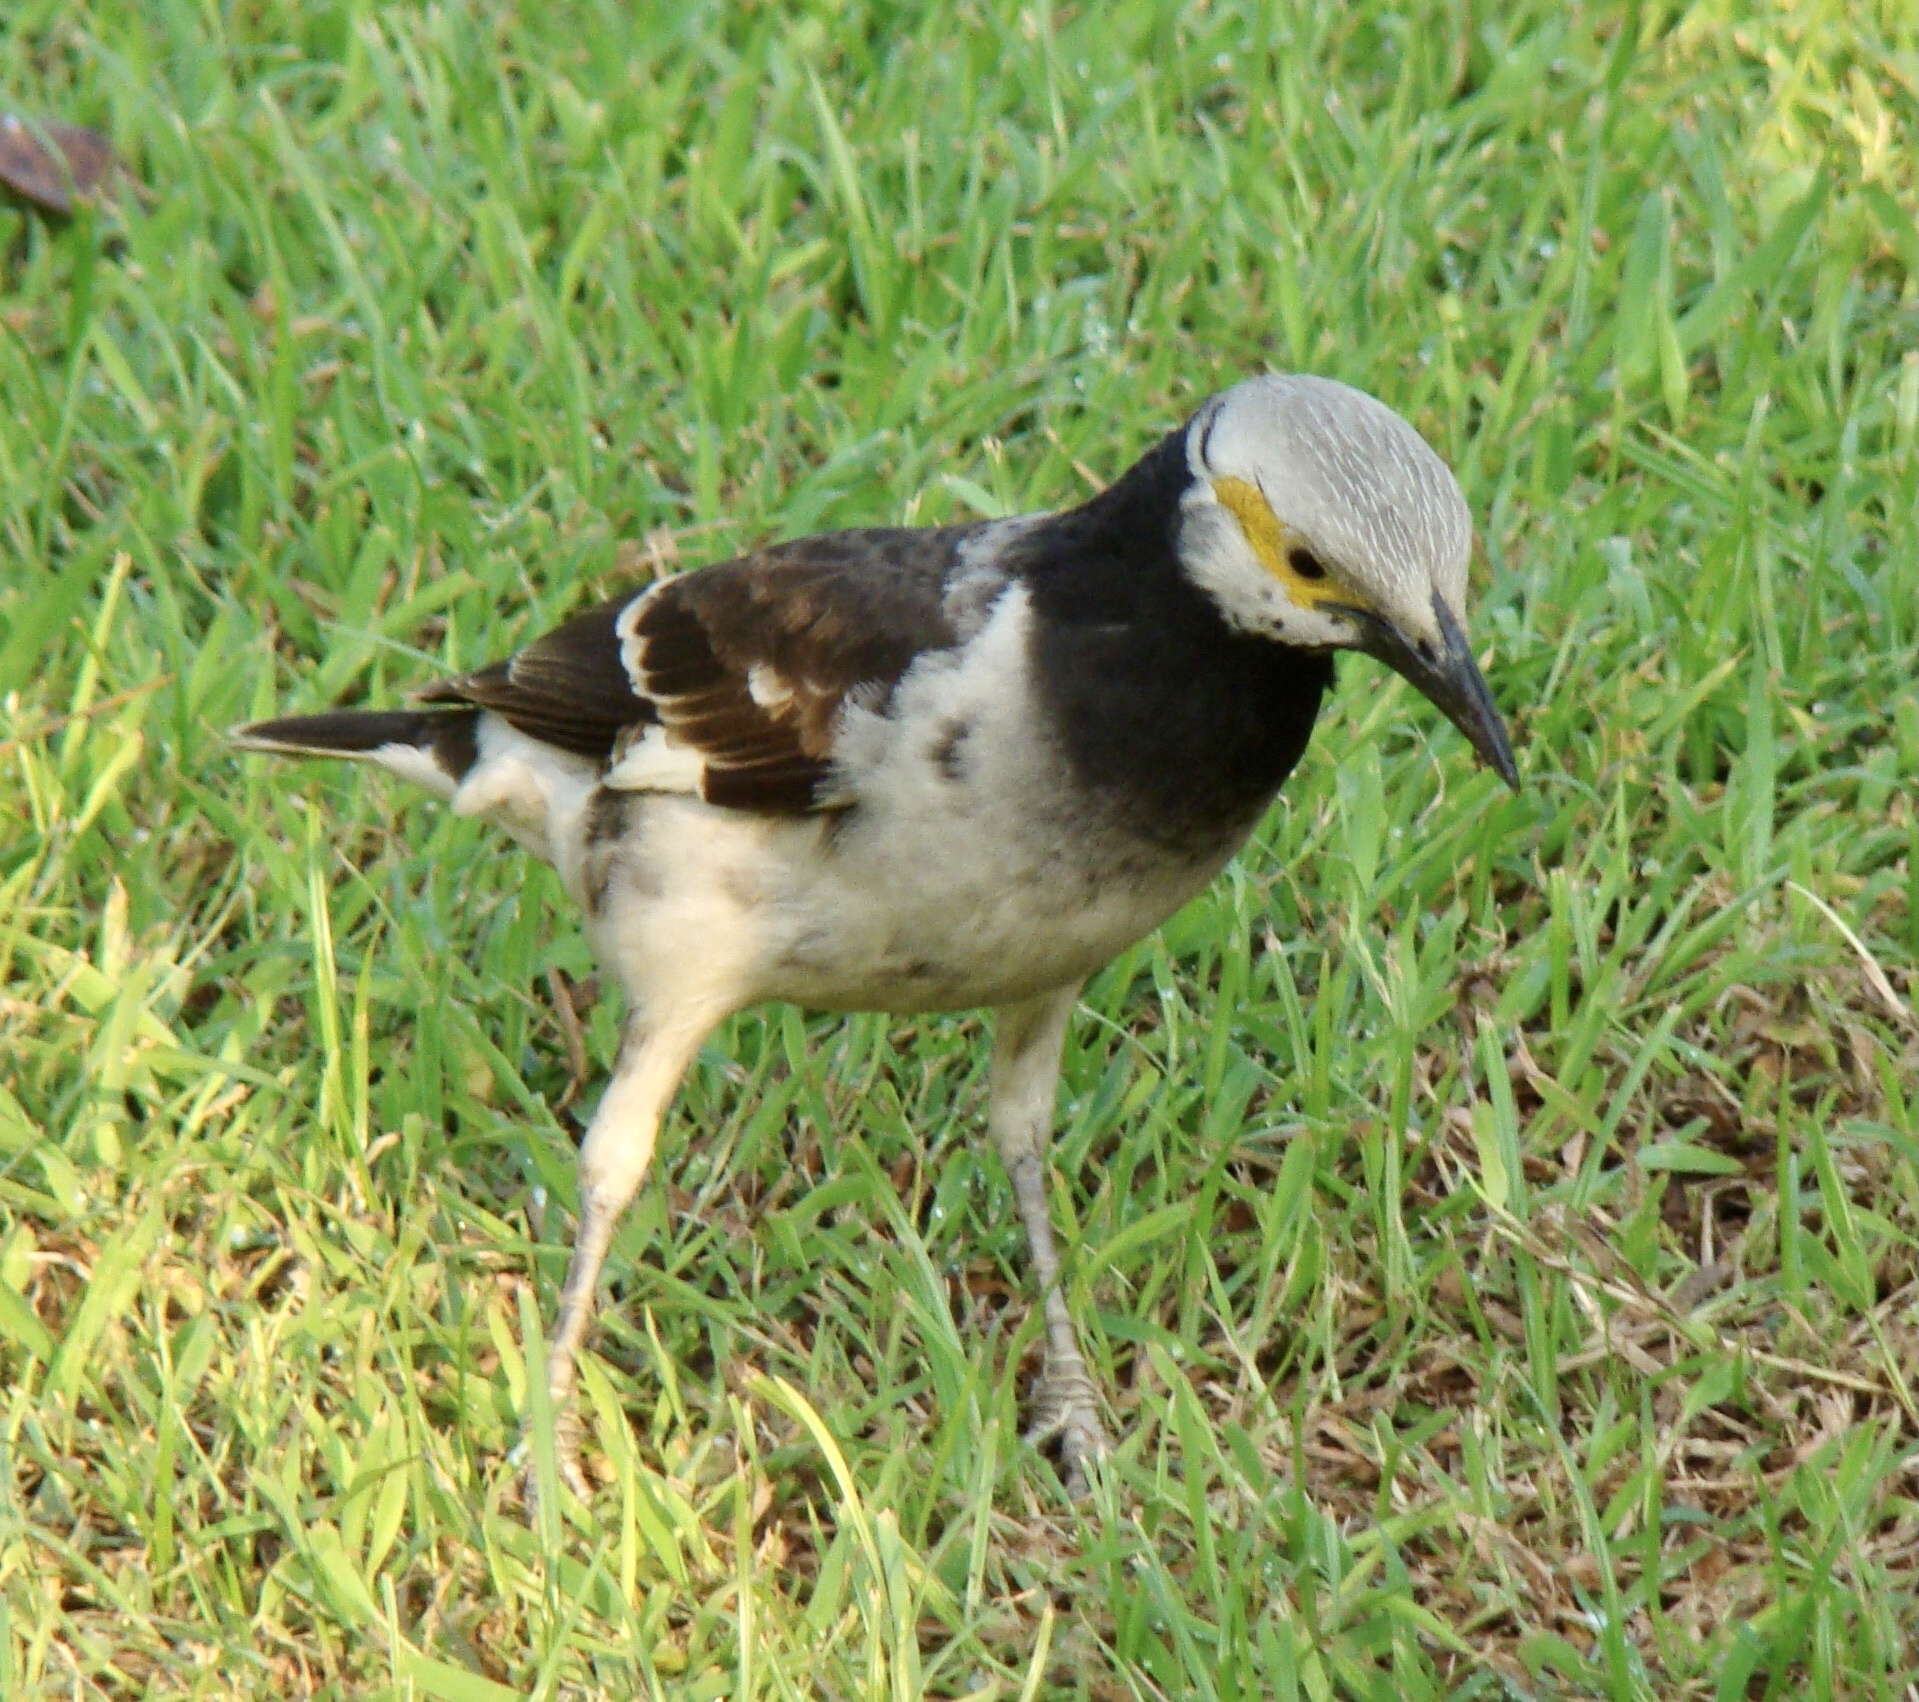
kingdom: Animalia
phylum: Chordata
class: Aves
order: Passeriformes
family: Sturnidae
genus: Gracupica
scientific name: Gracupica nigricollis
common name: Black-collared starling
